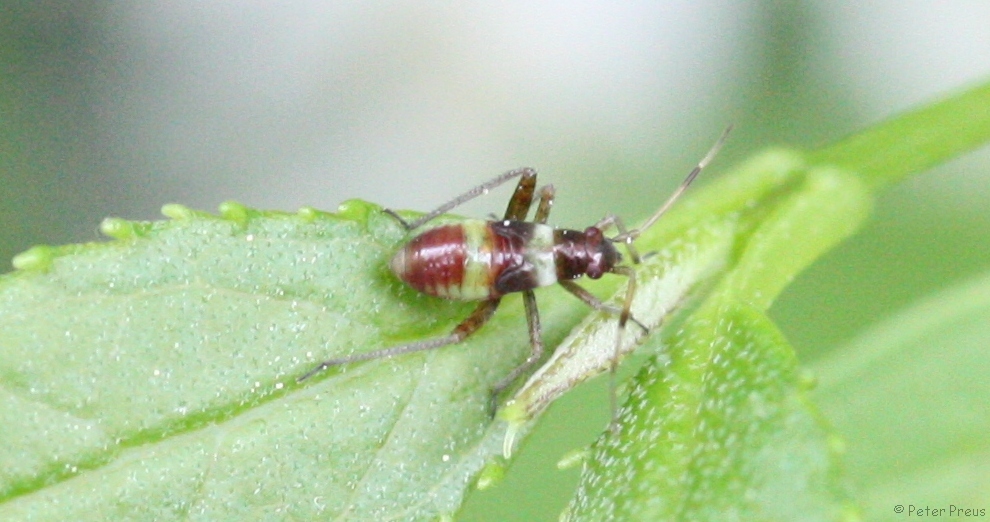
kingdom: Animalia
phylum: Arthropoda
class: Insecta
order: Hemiptera
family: Miridae
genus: Closterotomus
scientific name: Closterotomus fulvomaculatus
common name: Spotted plant bug
